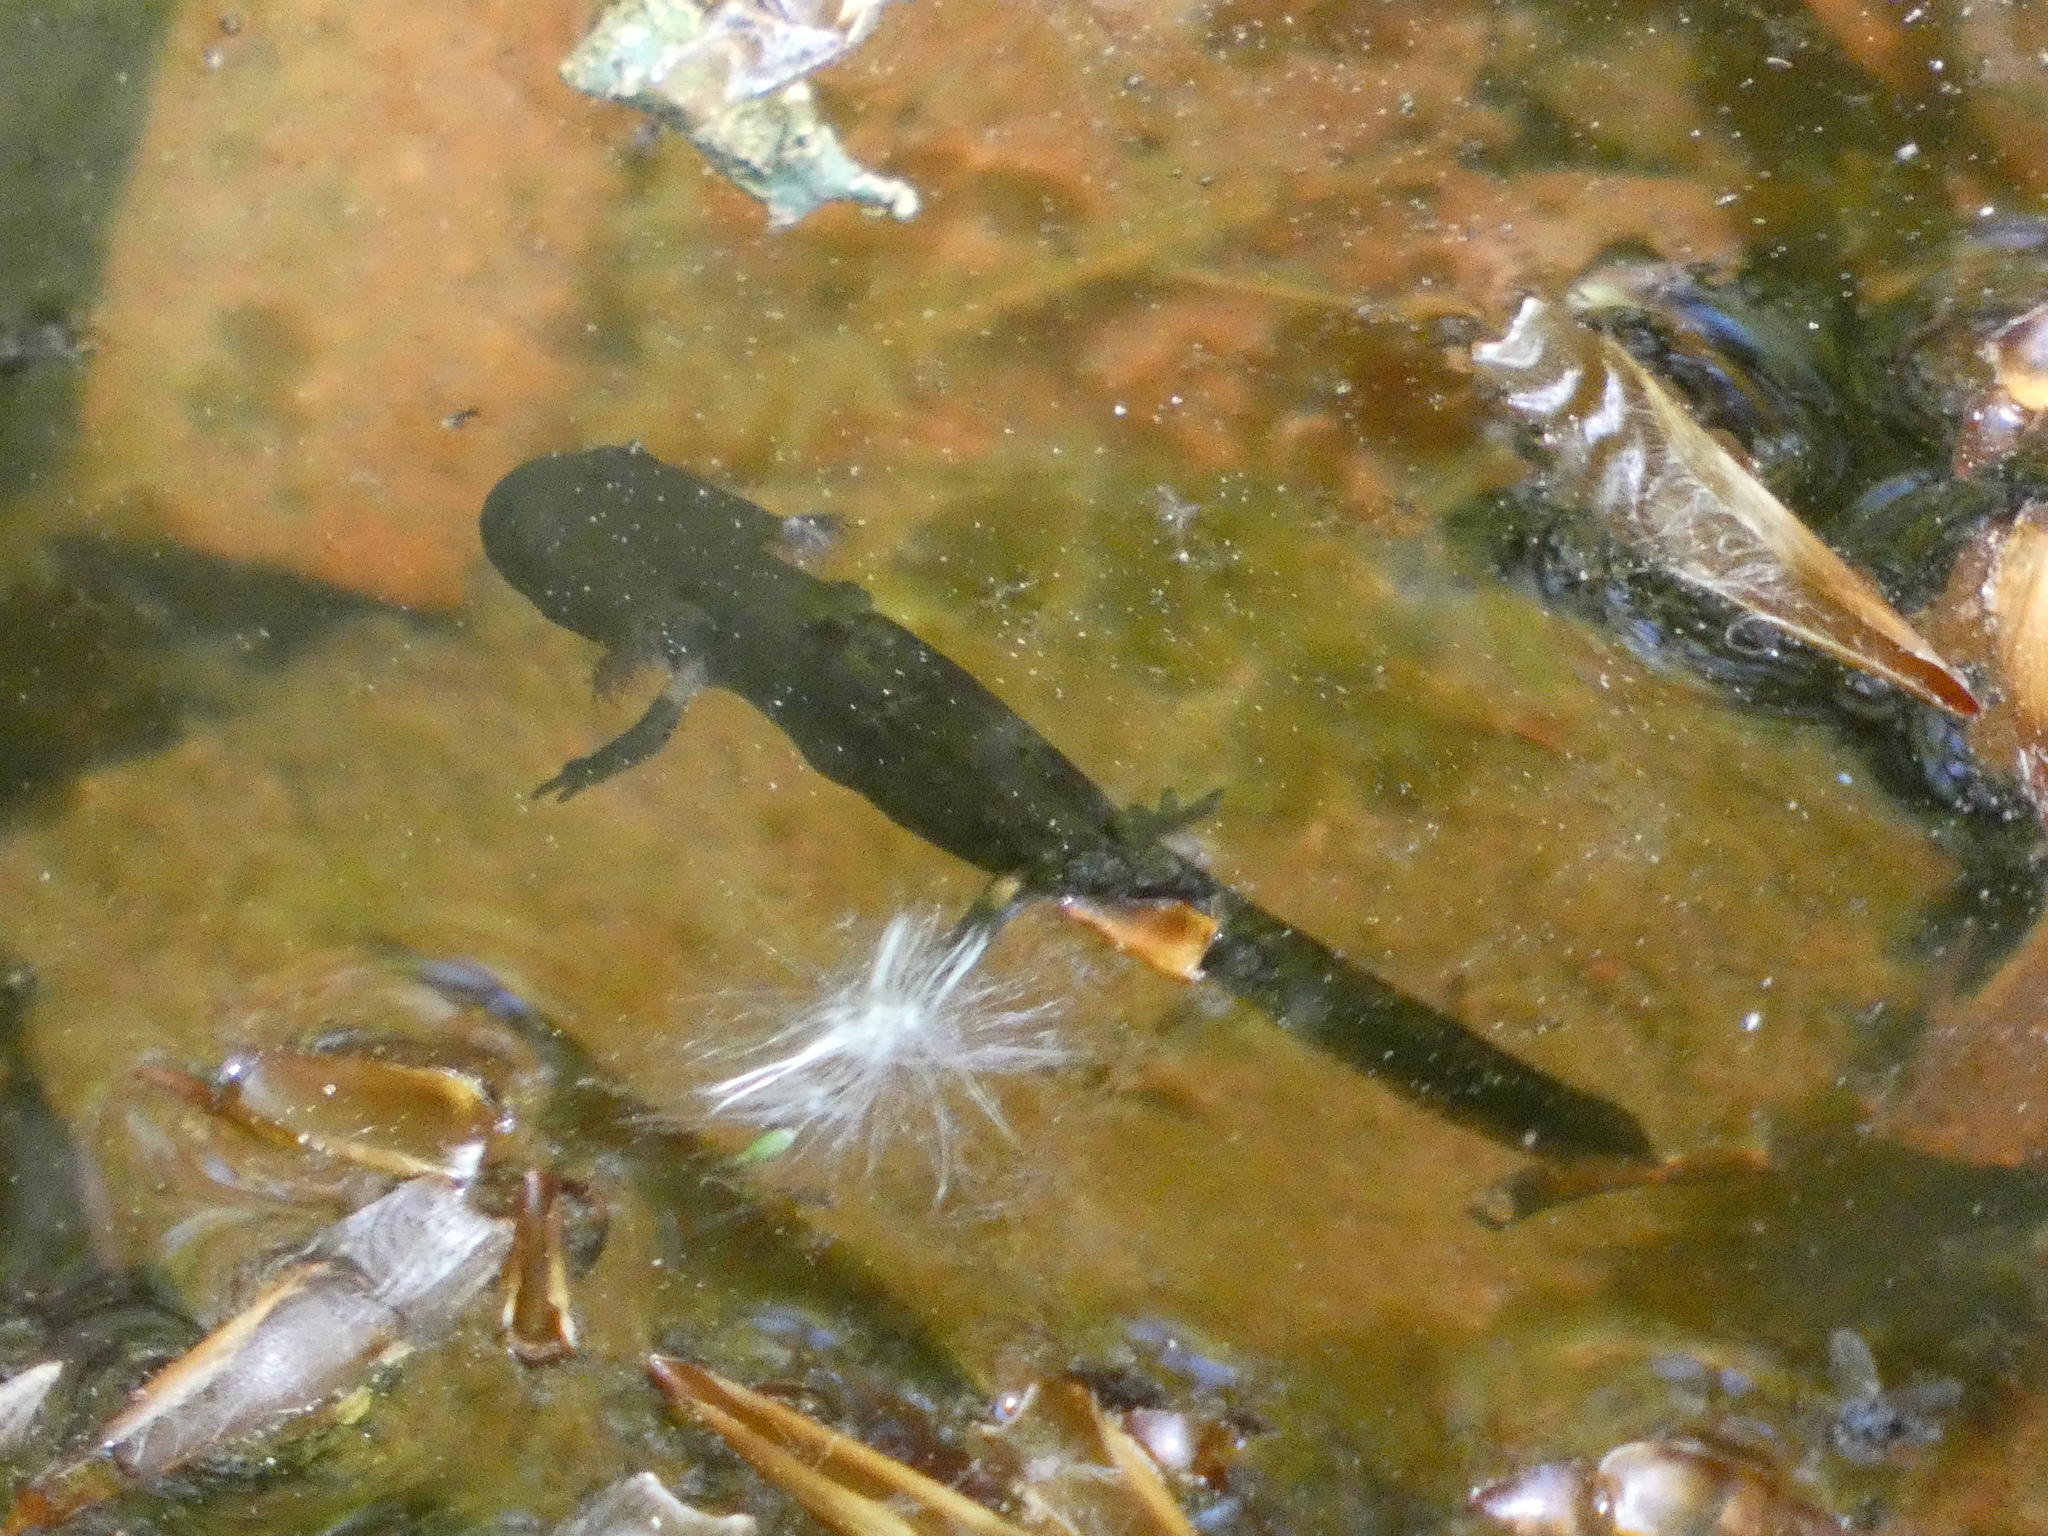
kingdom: Animalia
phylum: Chordata
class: Amphibia
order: Caudata
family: Salamandridae
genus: Salamandra
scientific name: Salamandra salamandra
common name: Fire salamander
